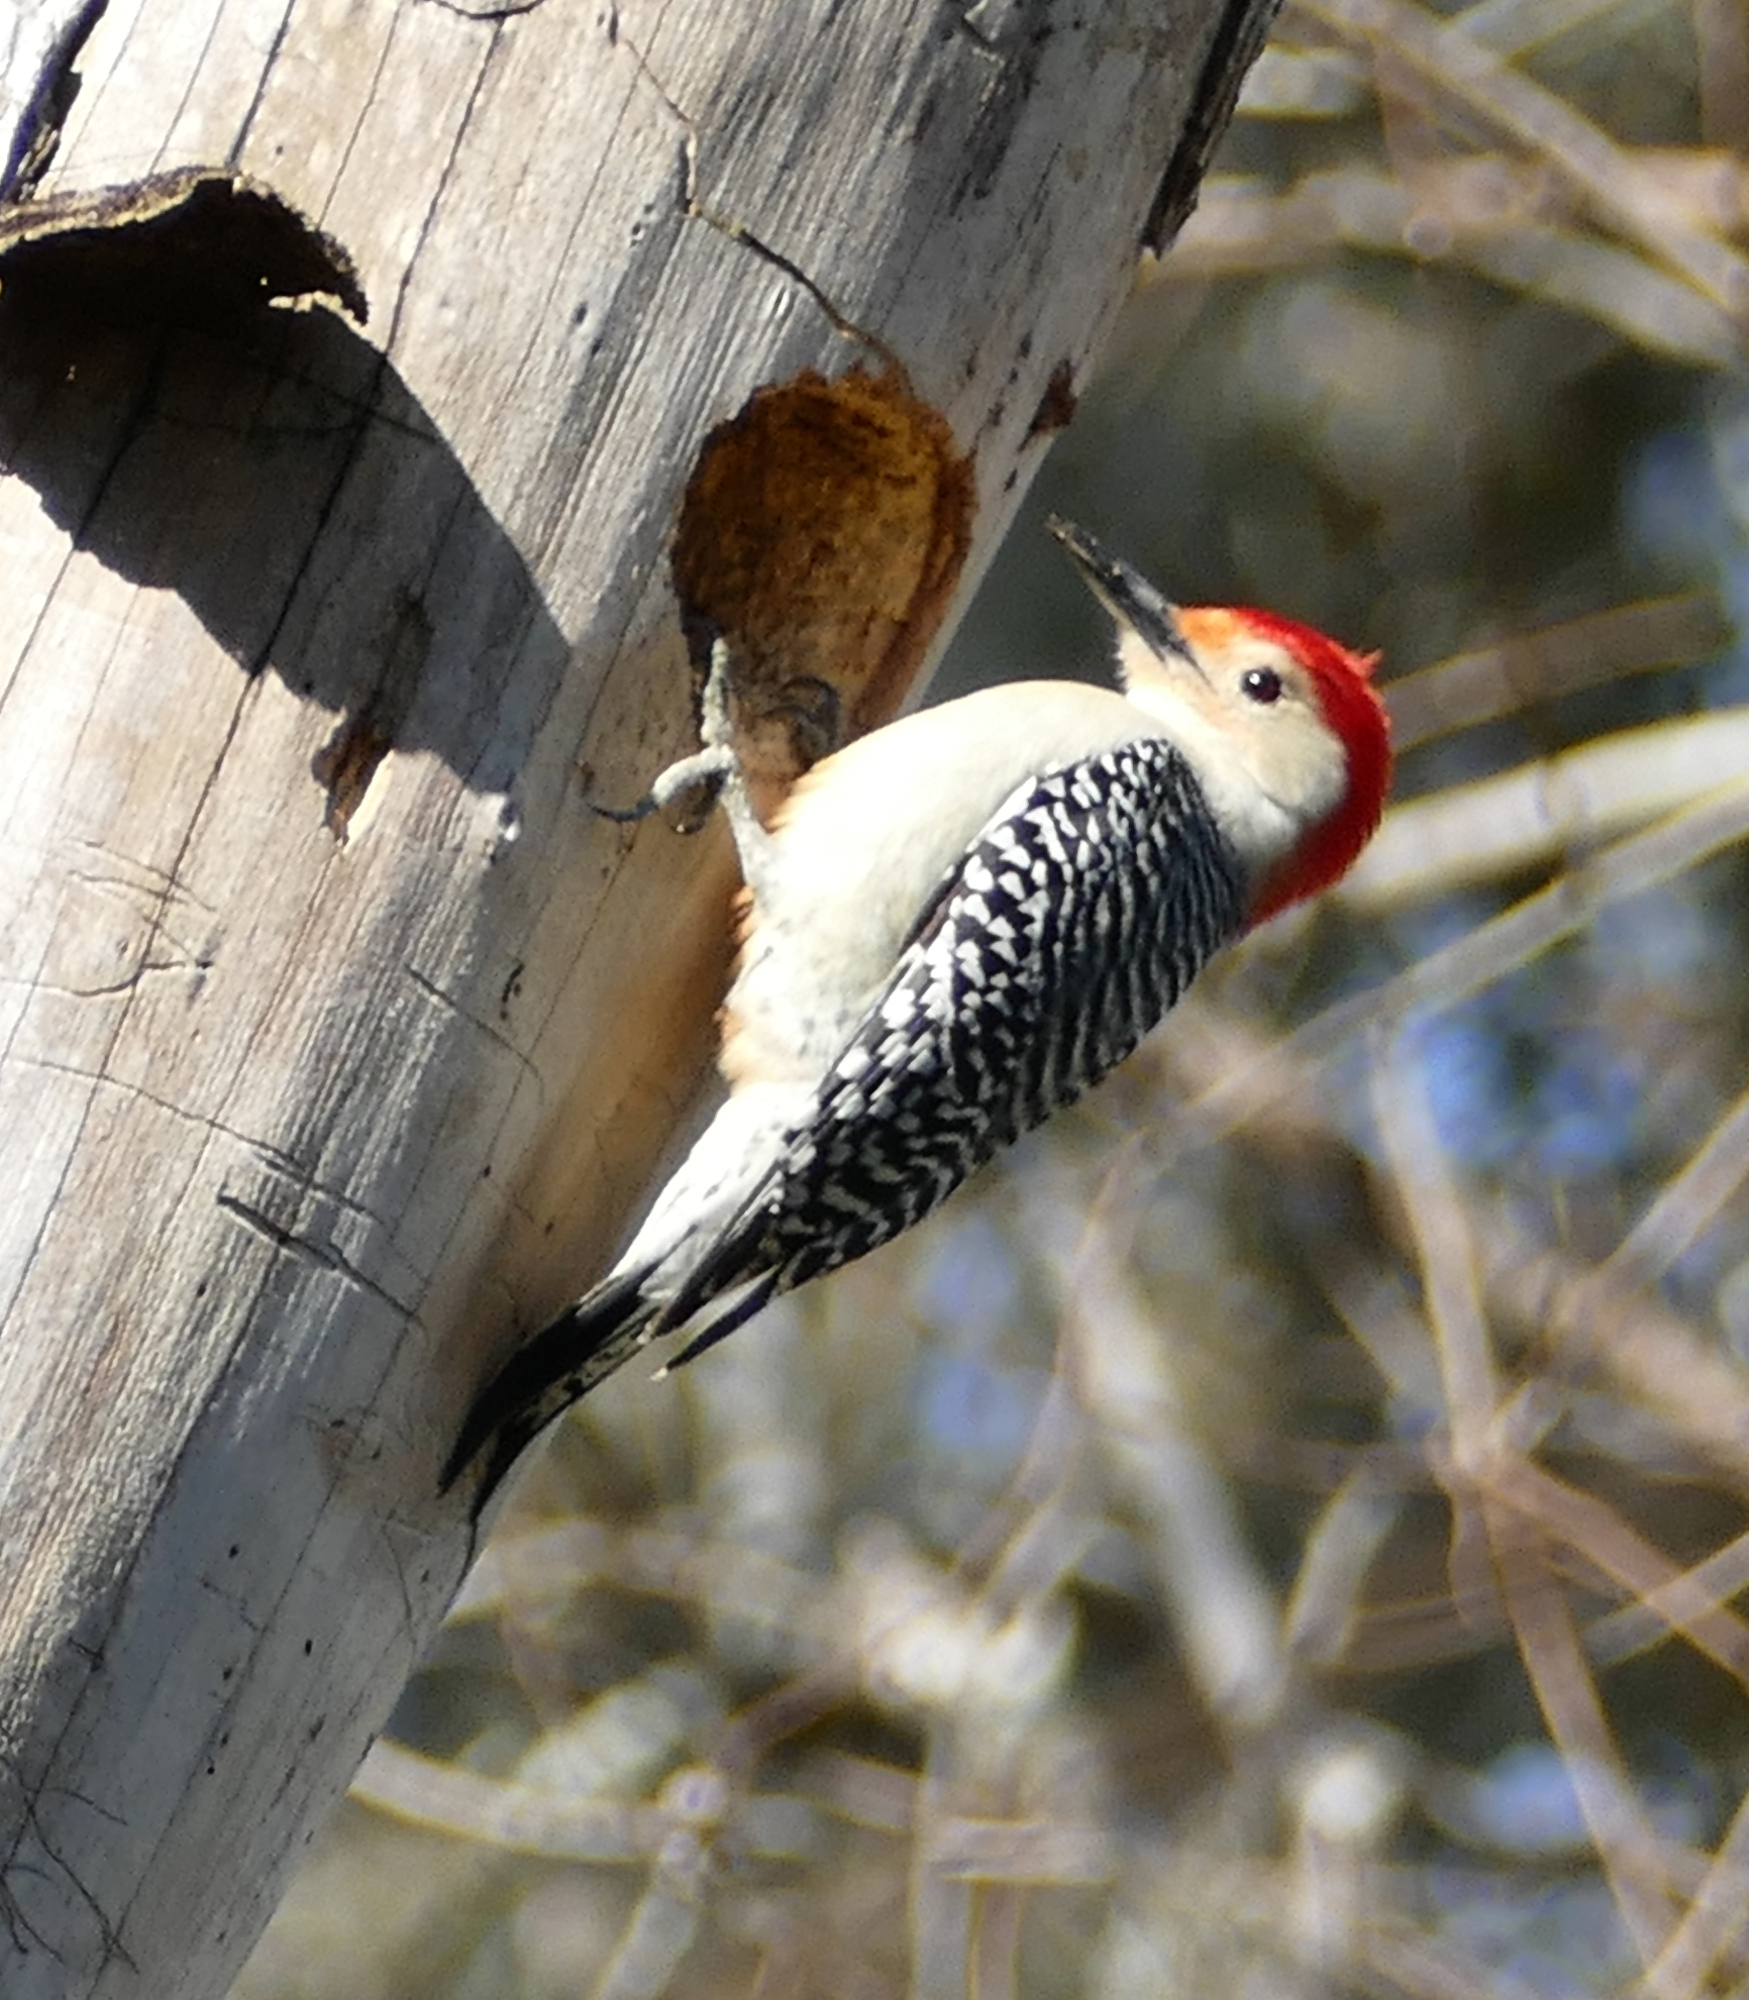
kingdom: Animalia
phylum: Chordata
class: Aves
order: Piciformes
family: Picidae
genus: Melanerpes
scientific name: Melanerpes carolinus
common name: Red-bellied woodpecker
